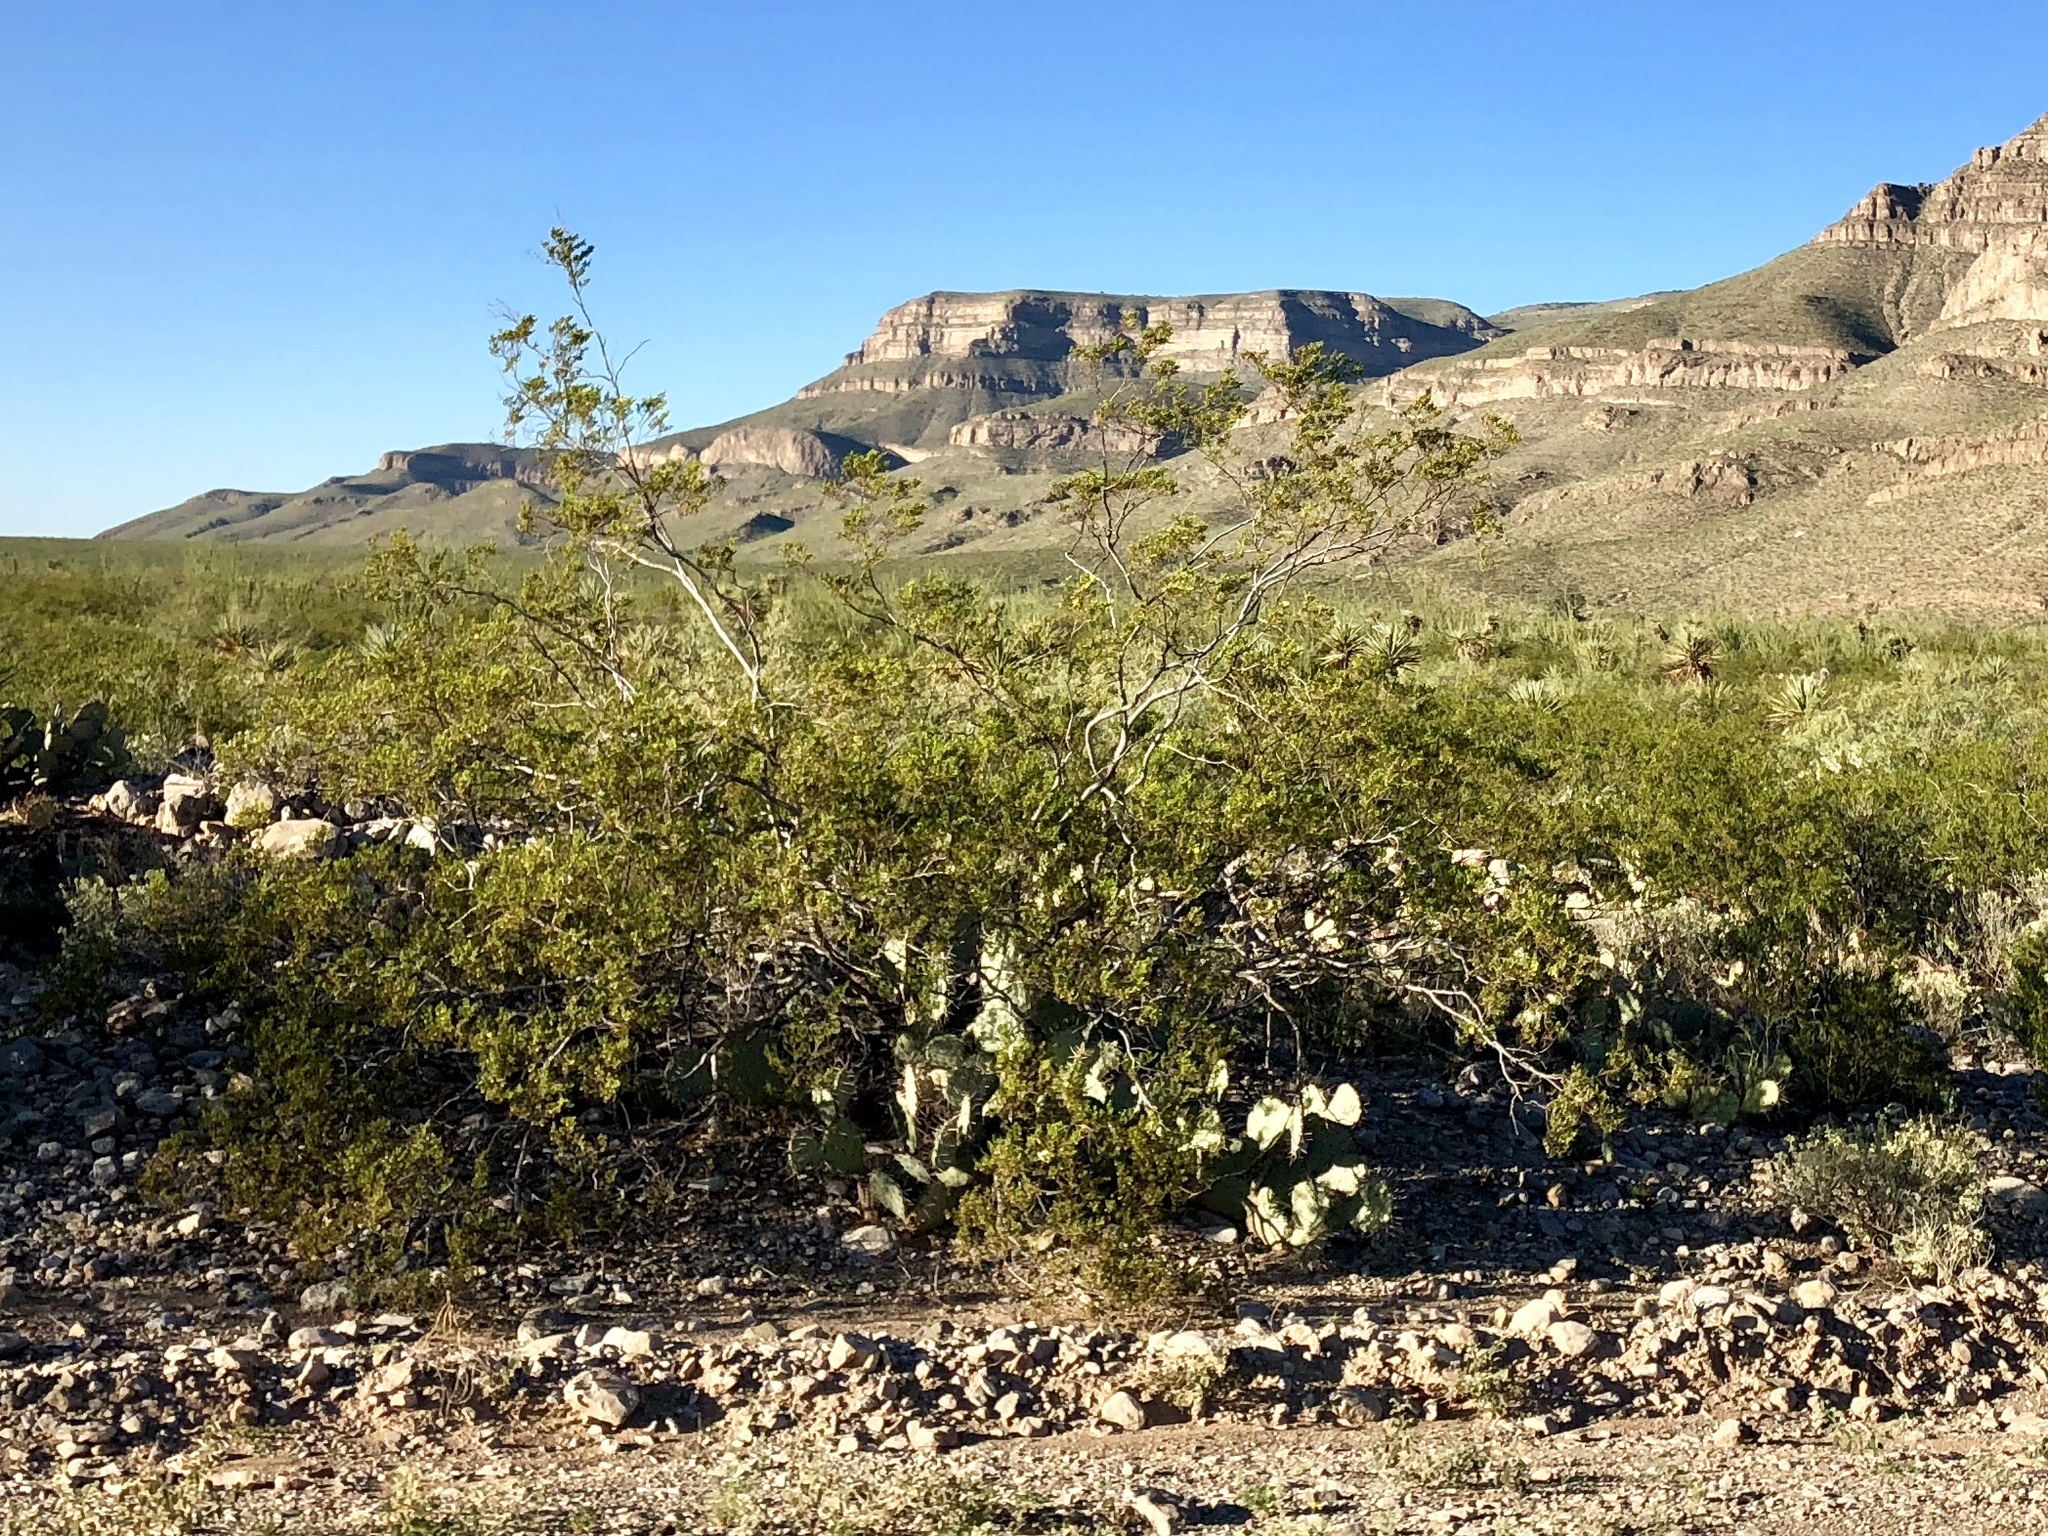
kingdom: Plantae
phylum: Tracheophyta
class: Magnoliopsida
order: Zygophyllales
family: Zygophyllaceae
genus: Larrea
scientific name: Larrea tridentata
